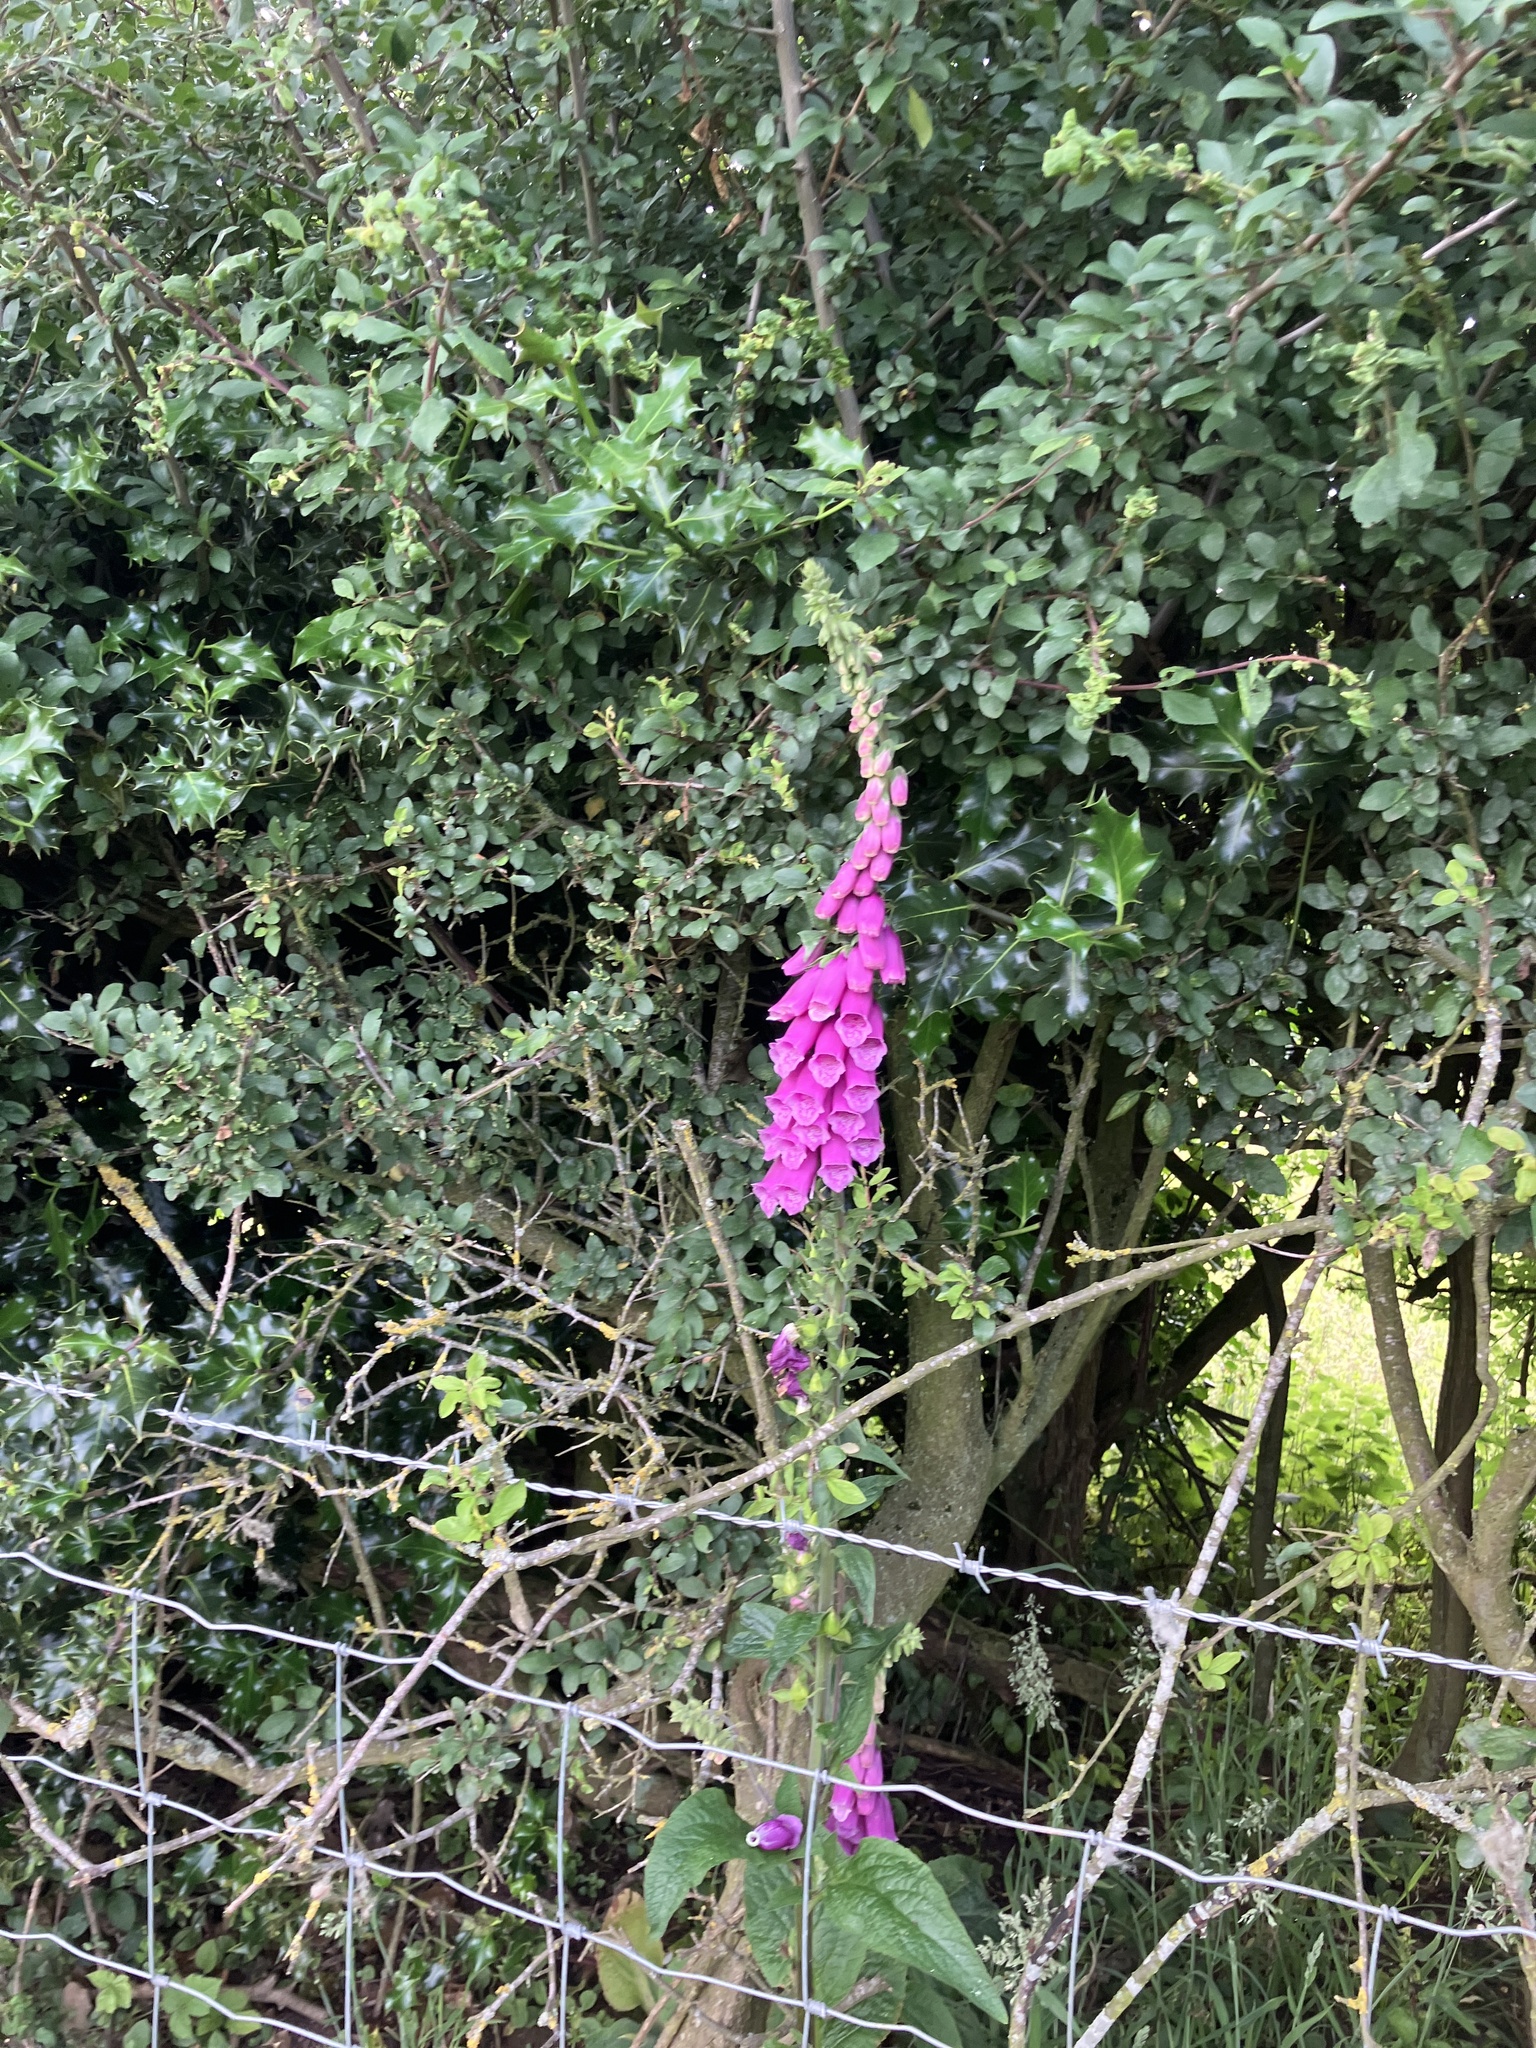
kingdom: Plantae
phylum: Tracheophyta
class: Magnoliopsida
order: Lamiales
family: Plantaginaceae
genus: Digitalis
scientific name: Digitalis purpurea
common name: Foxglove
